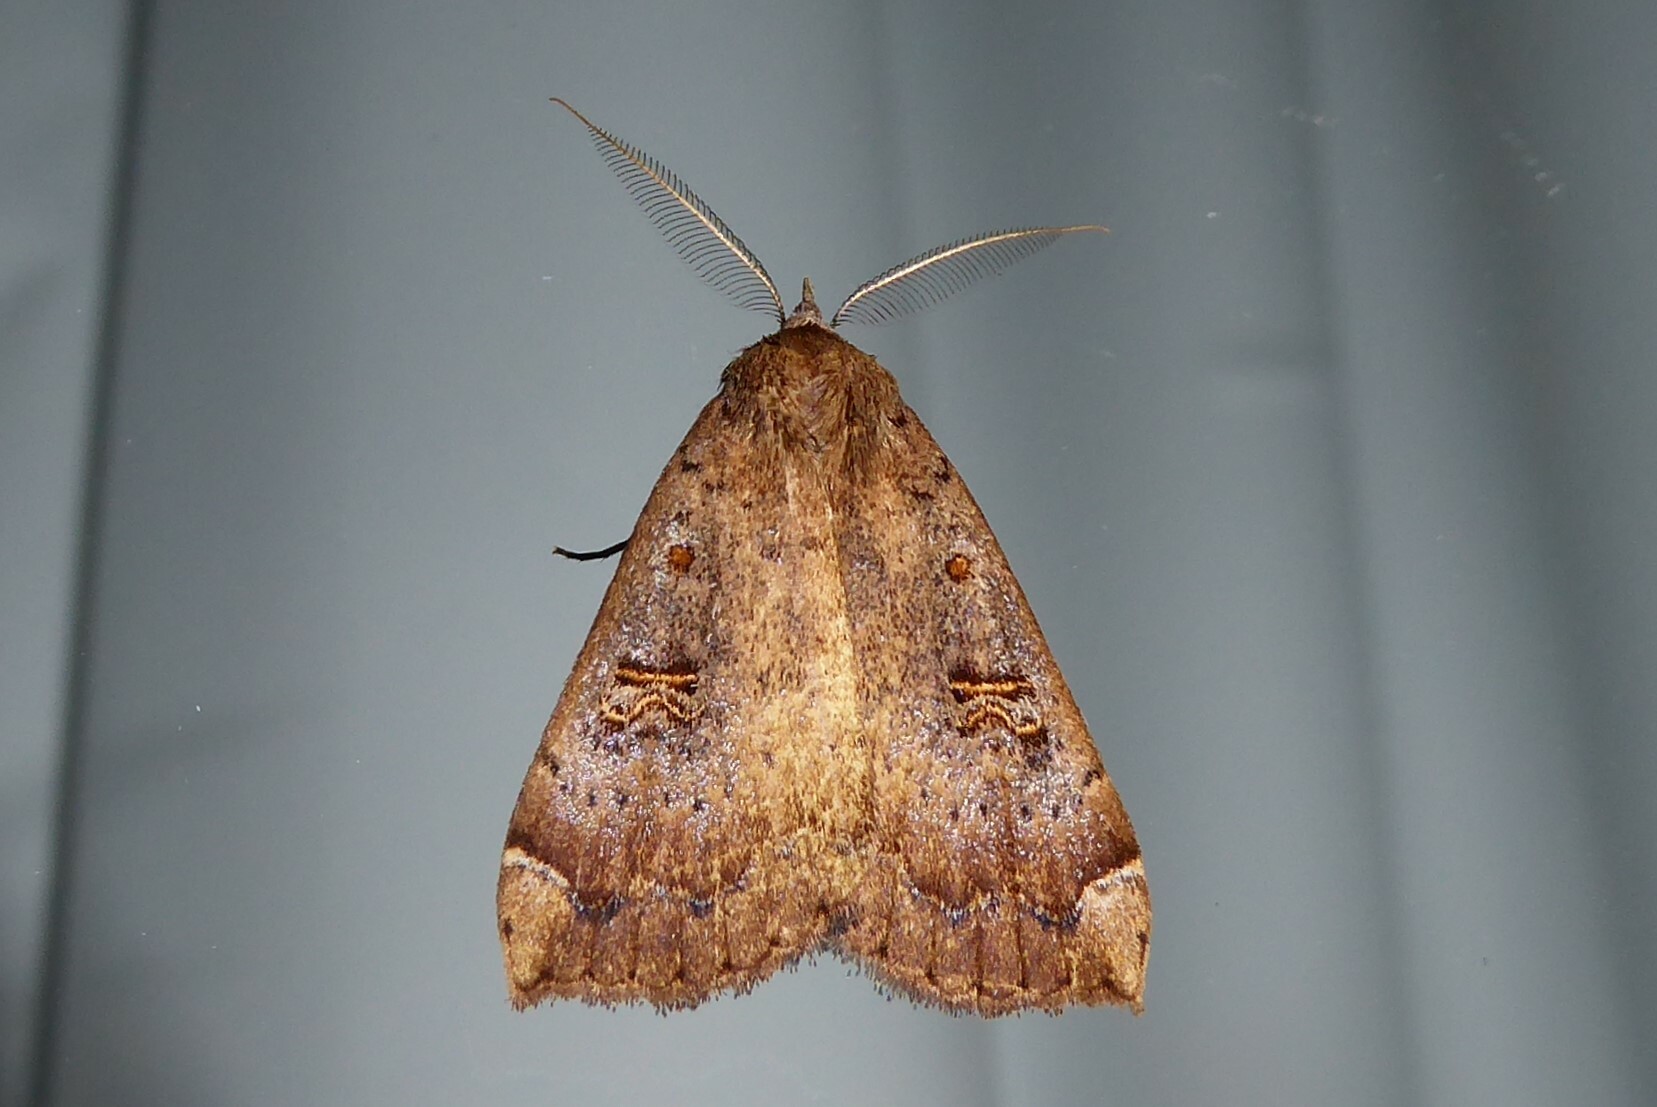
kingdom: Animalia
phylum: Arthropoda
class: Insecta
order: Lepidoptera
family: Erebidae
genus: Rhapsa
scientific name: Rhapsa scotosialis
